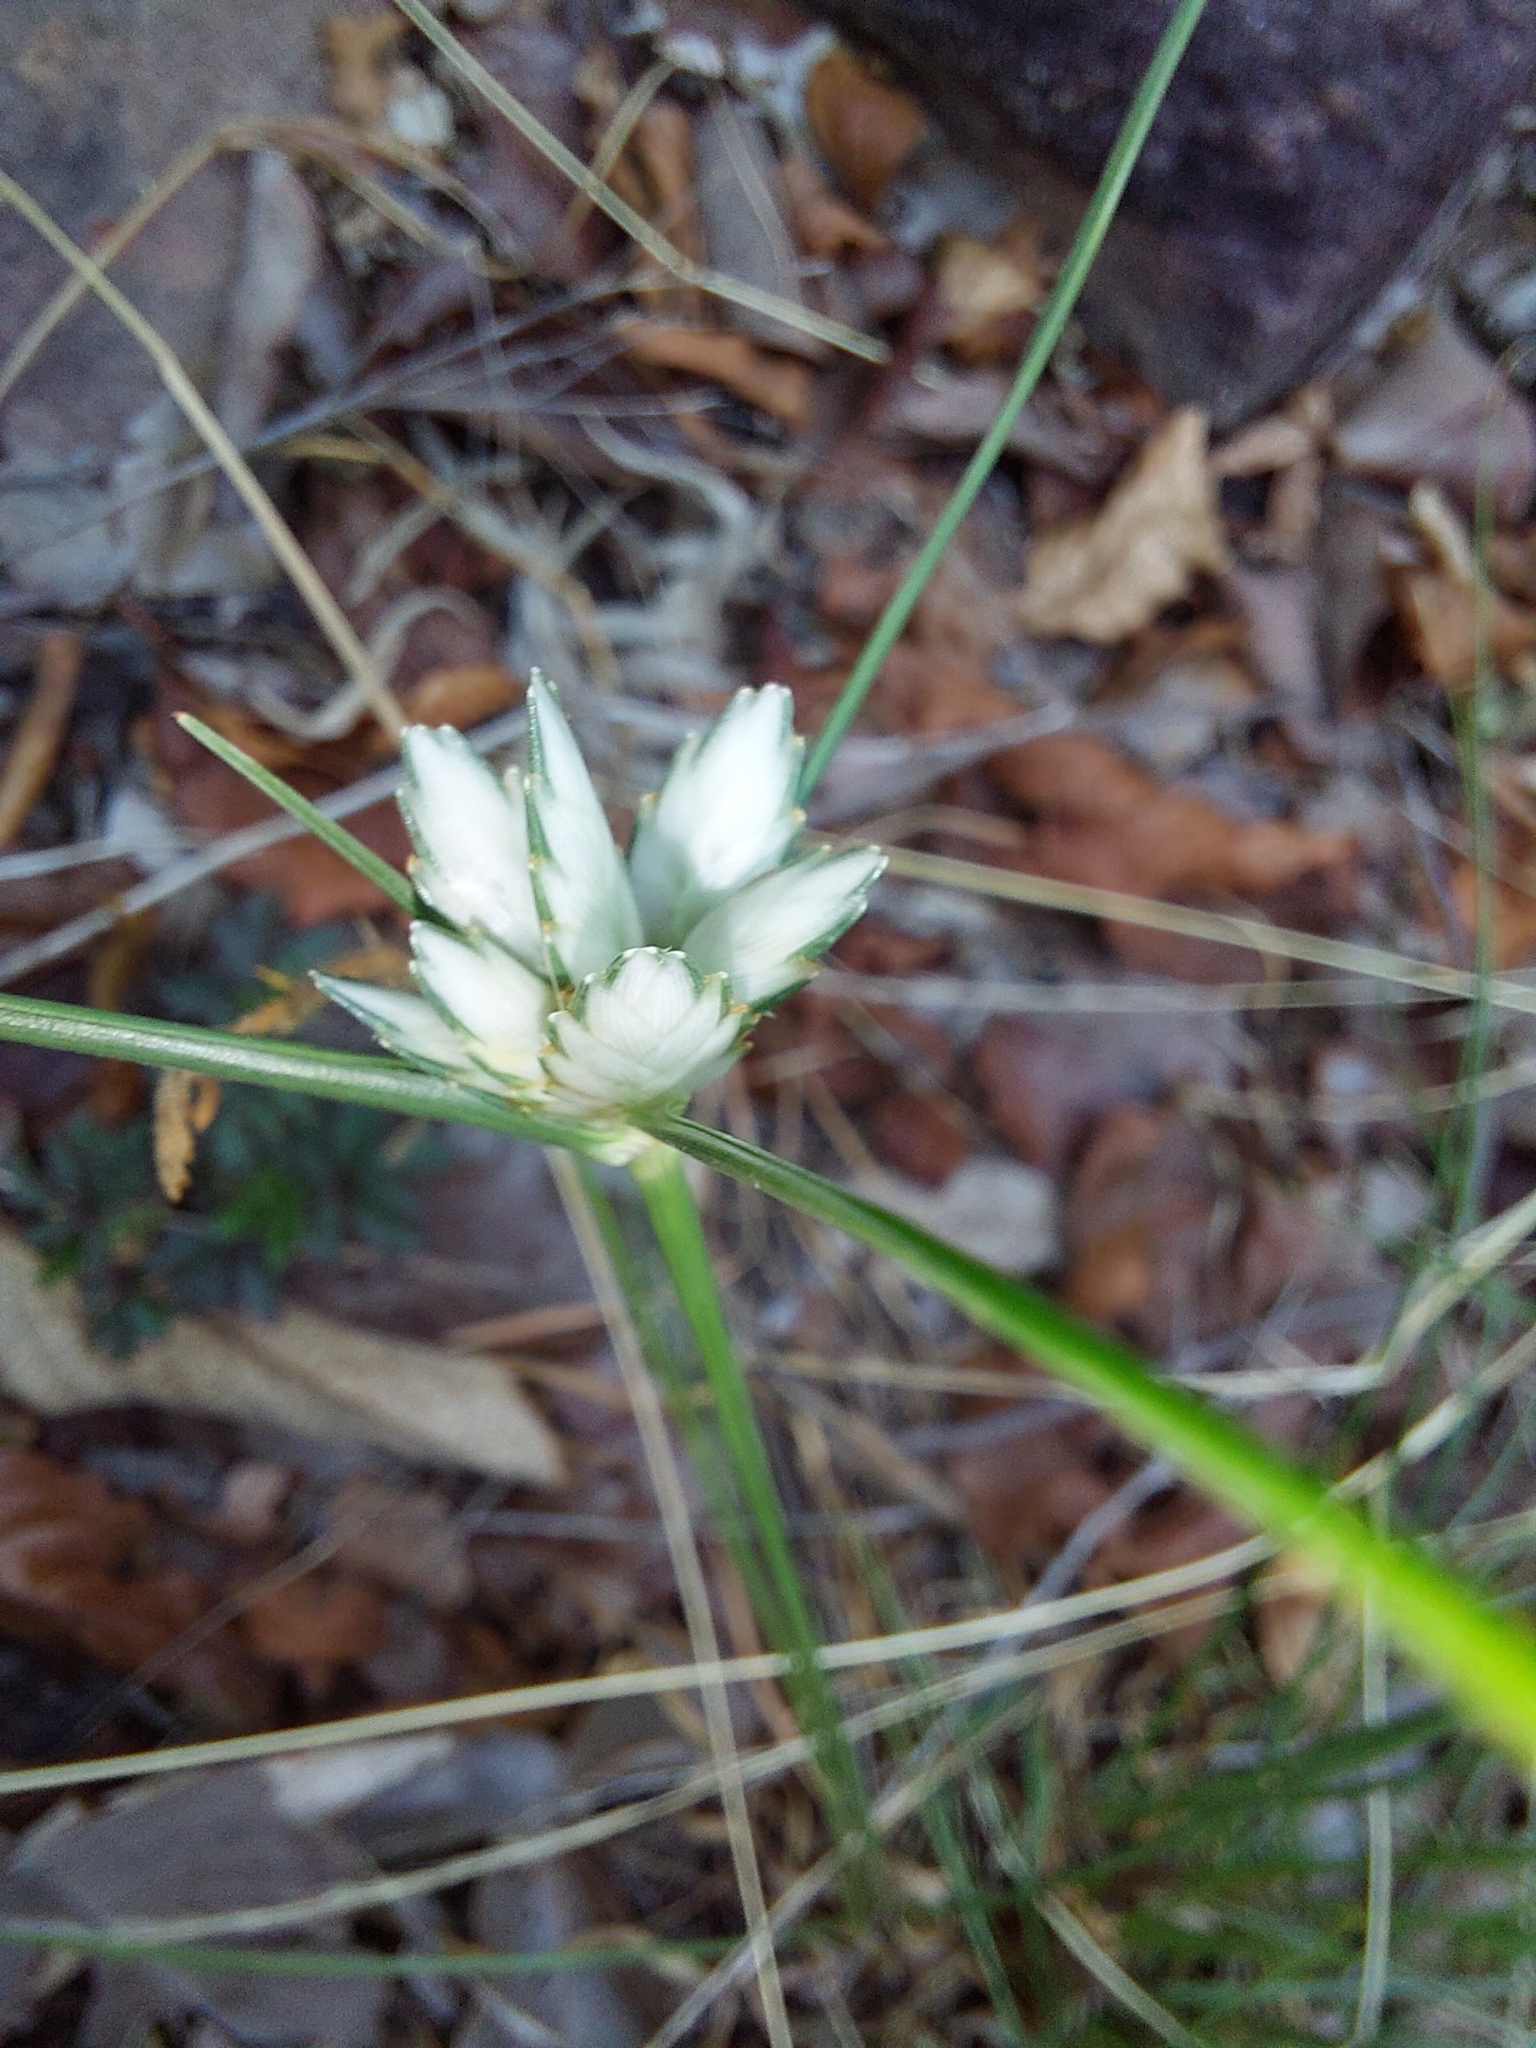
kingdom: Plantae
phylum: Tracheophyta
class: Liliopsida
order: Poales
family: Cyperaceae
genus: Cyperus
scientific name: Cyperus margaritaceus
